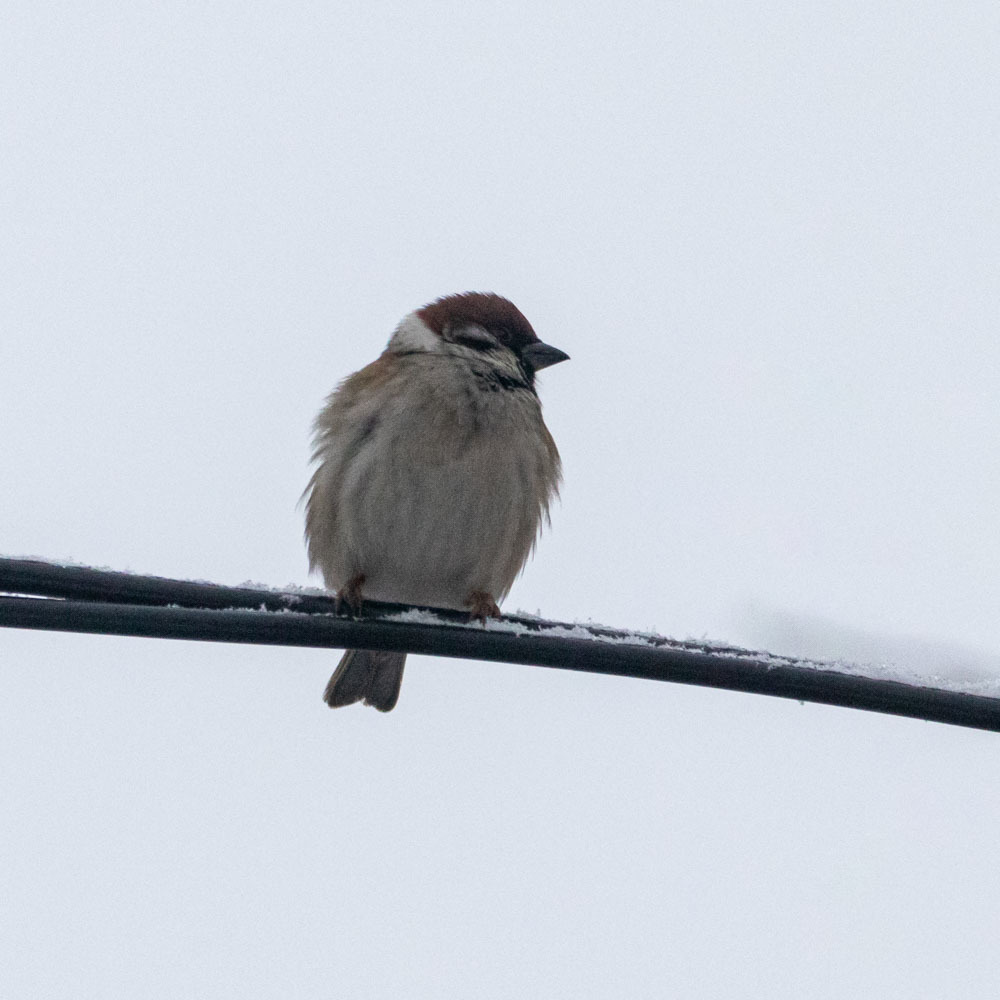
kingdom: Animalia
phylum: Chordata
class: Aves
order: Passeriformes
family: Passeridae
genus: Passer
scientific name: Passer montanus
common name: Eurasian tree sparrow
